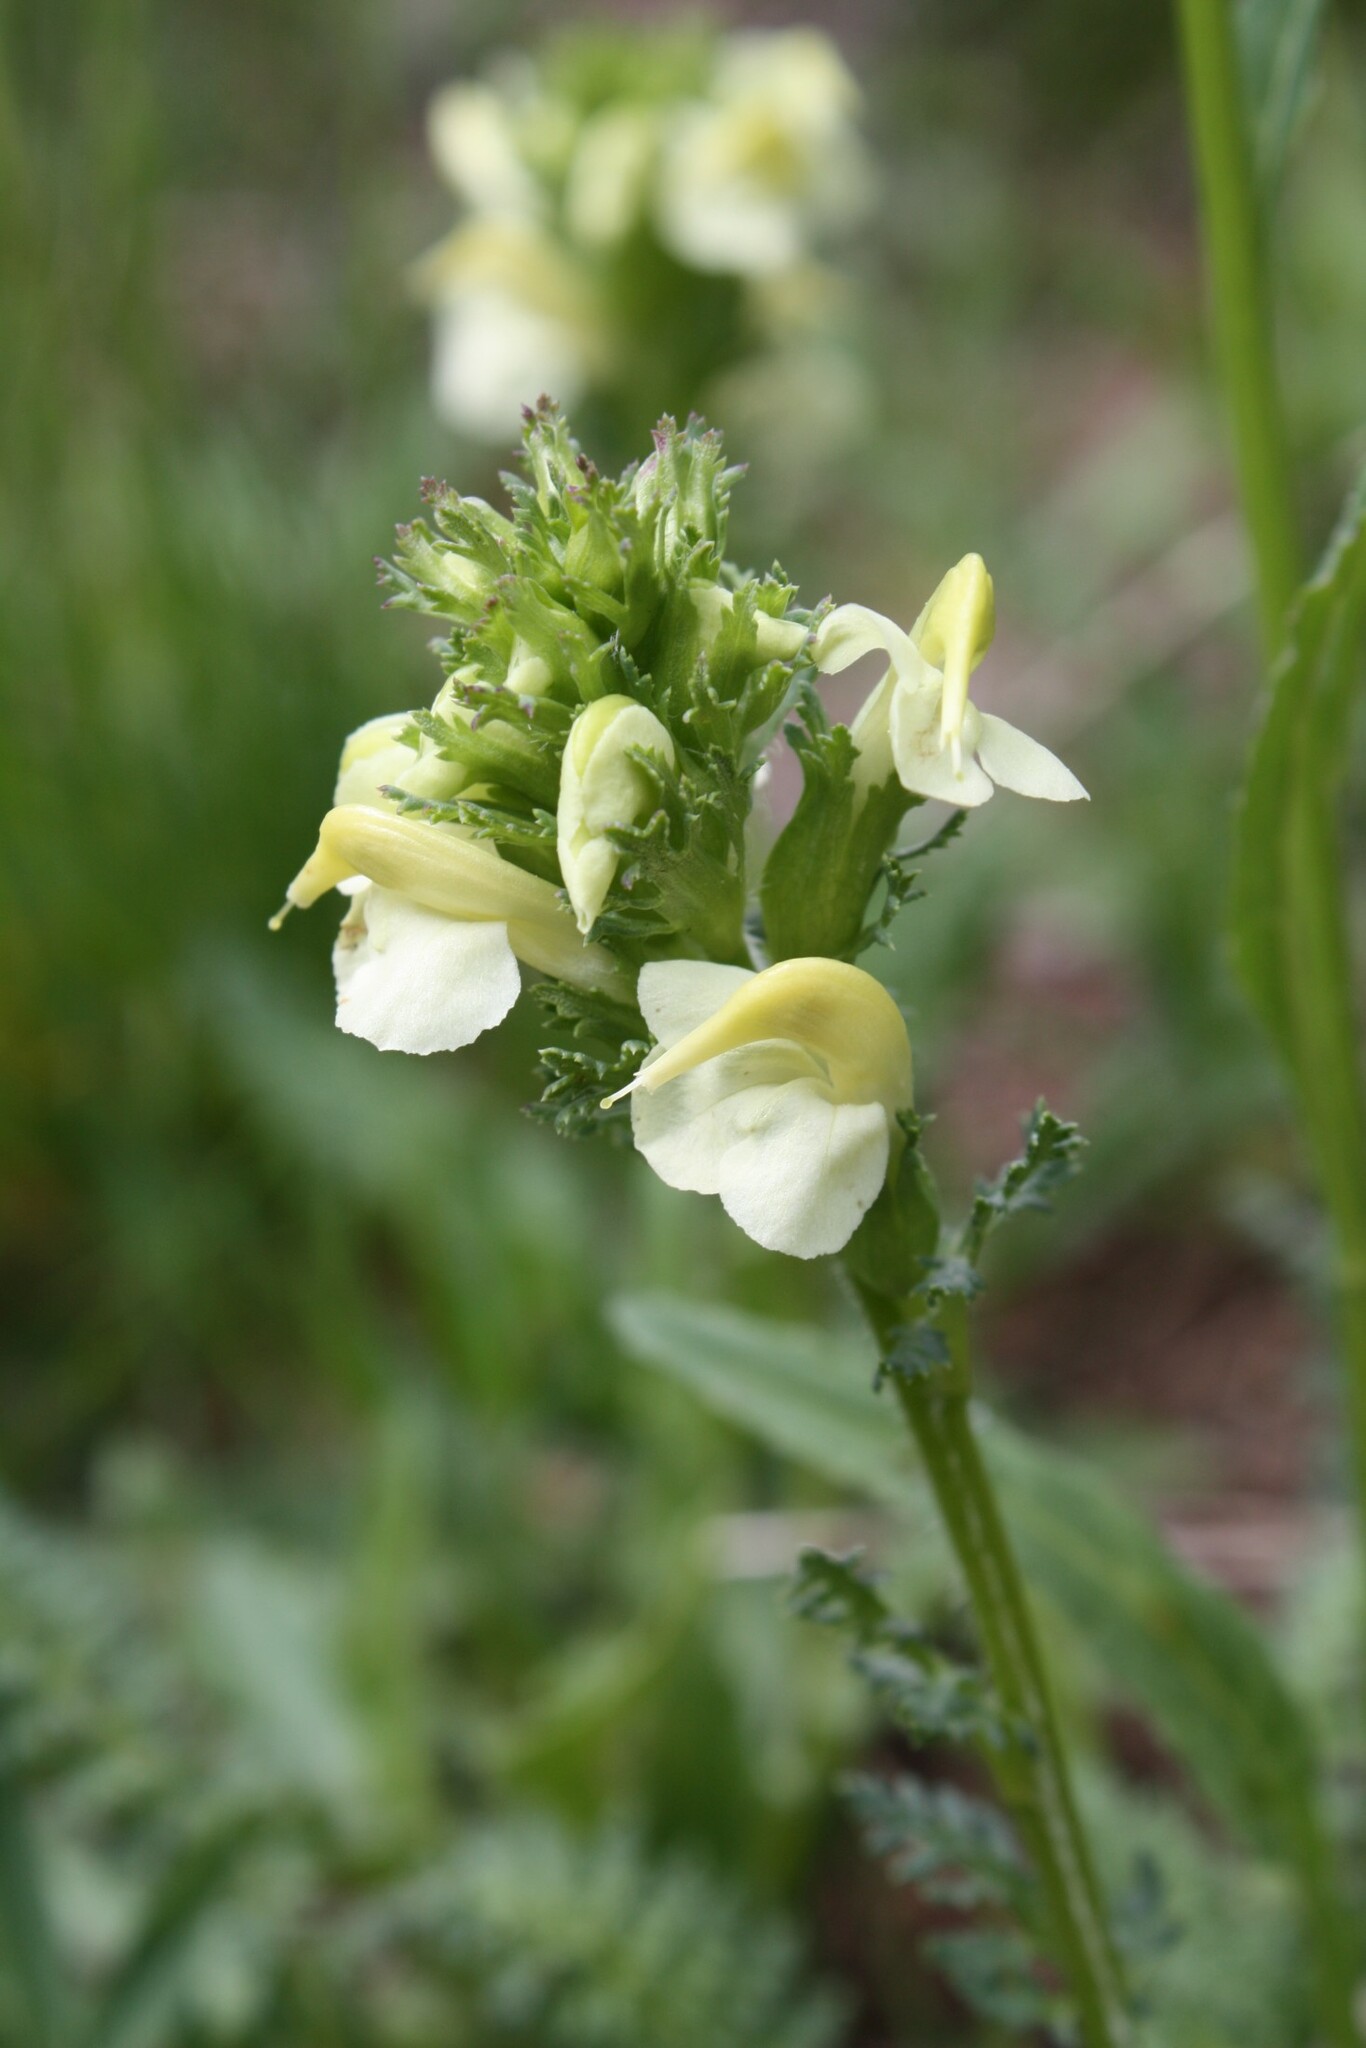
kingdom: Plantae
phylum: Tracheophyta
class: Magnoliopsida
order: Lamiales
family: Orobanchaceae
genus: Pedicularis
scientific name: Pedicularis tuberosa
